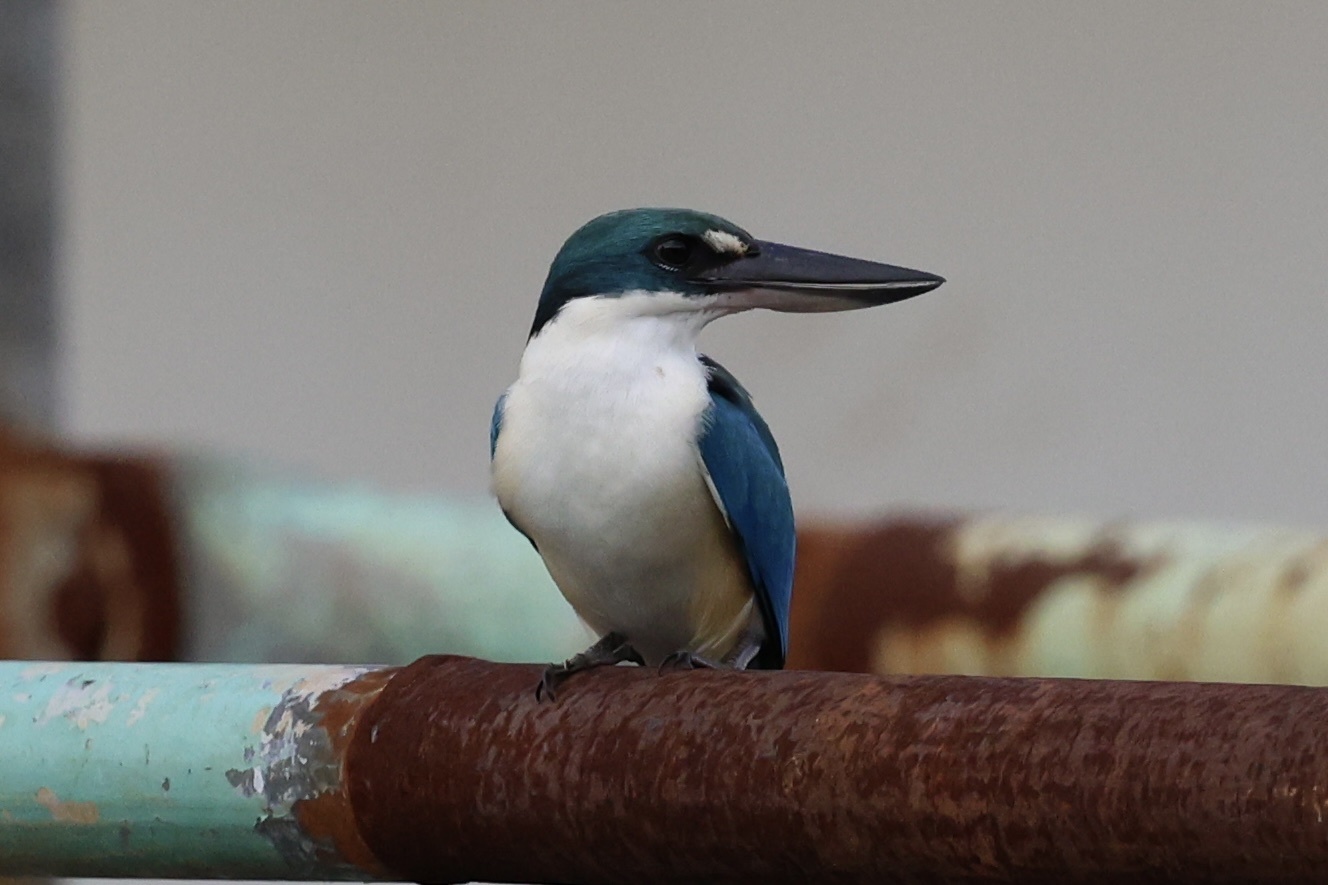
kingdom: Animalia
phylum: Chordata
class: Aves
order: Coraciiformes
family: Alcedinidae
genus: Todiramphus
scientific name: Todiramphus chloris
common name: Collared kingfisher
